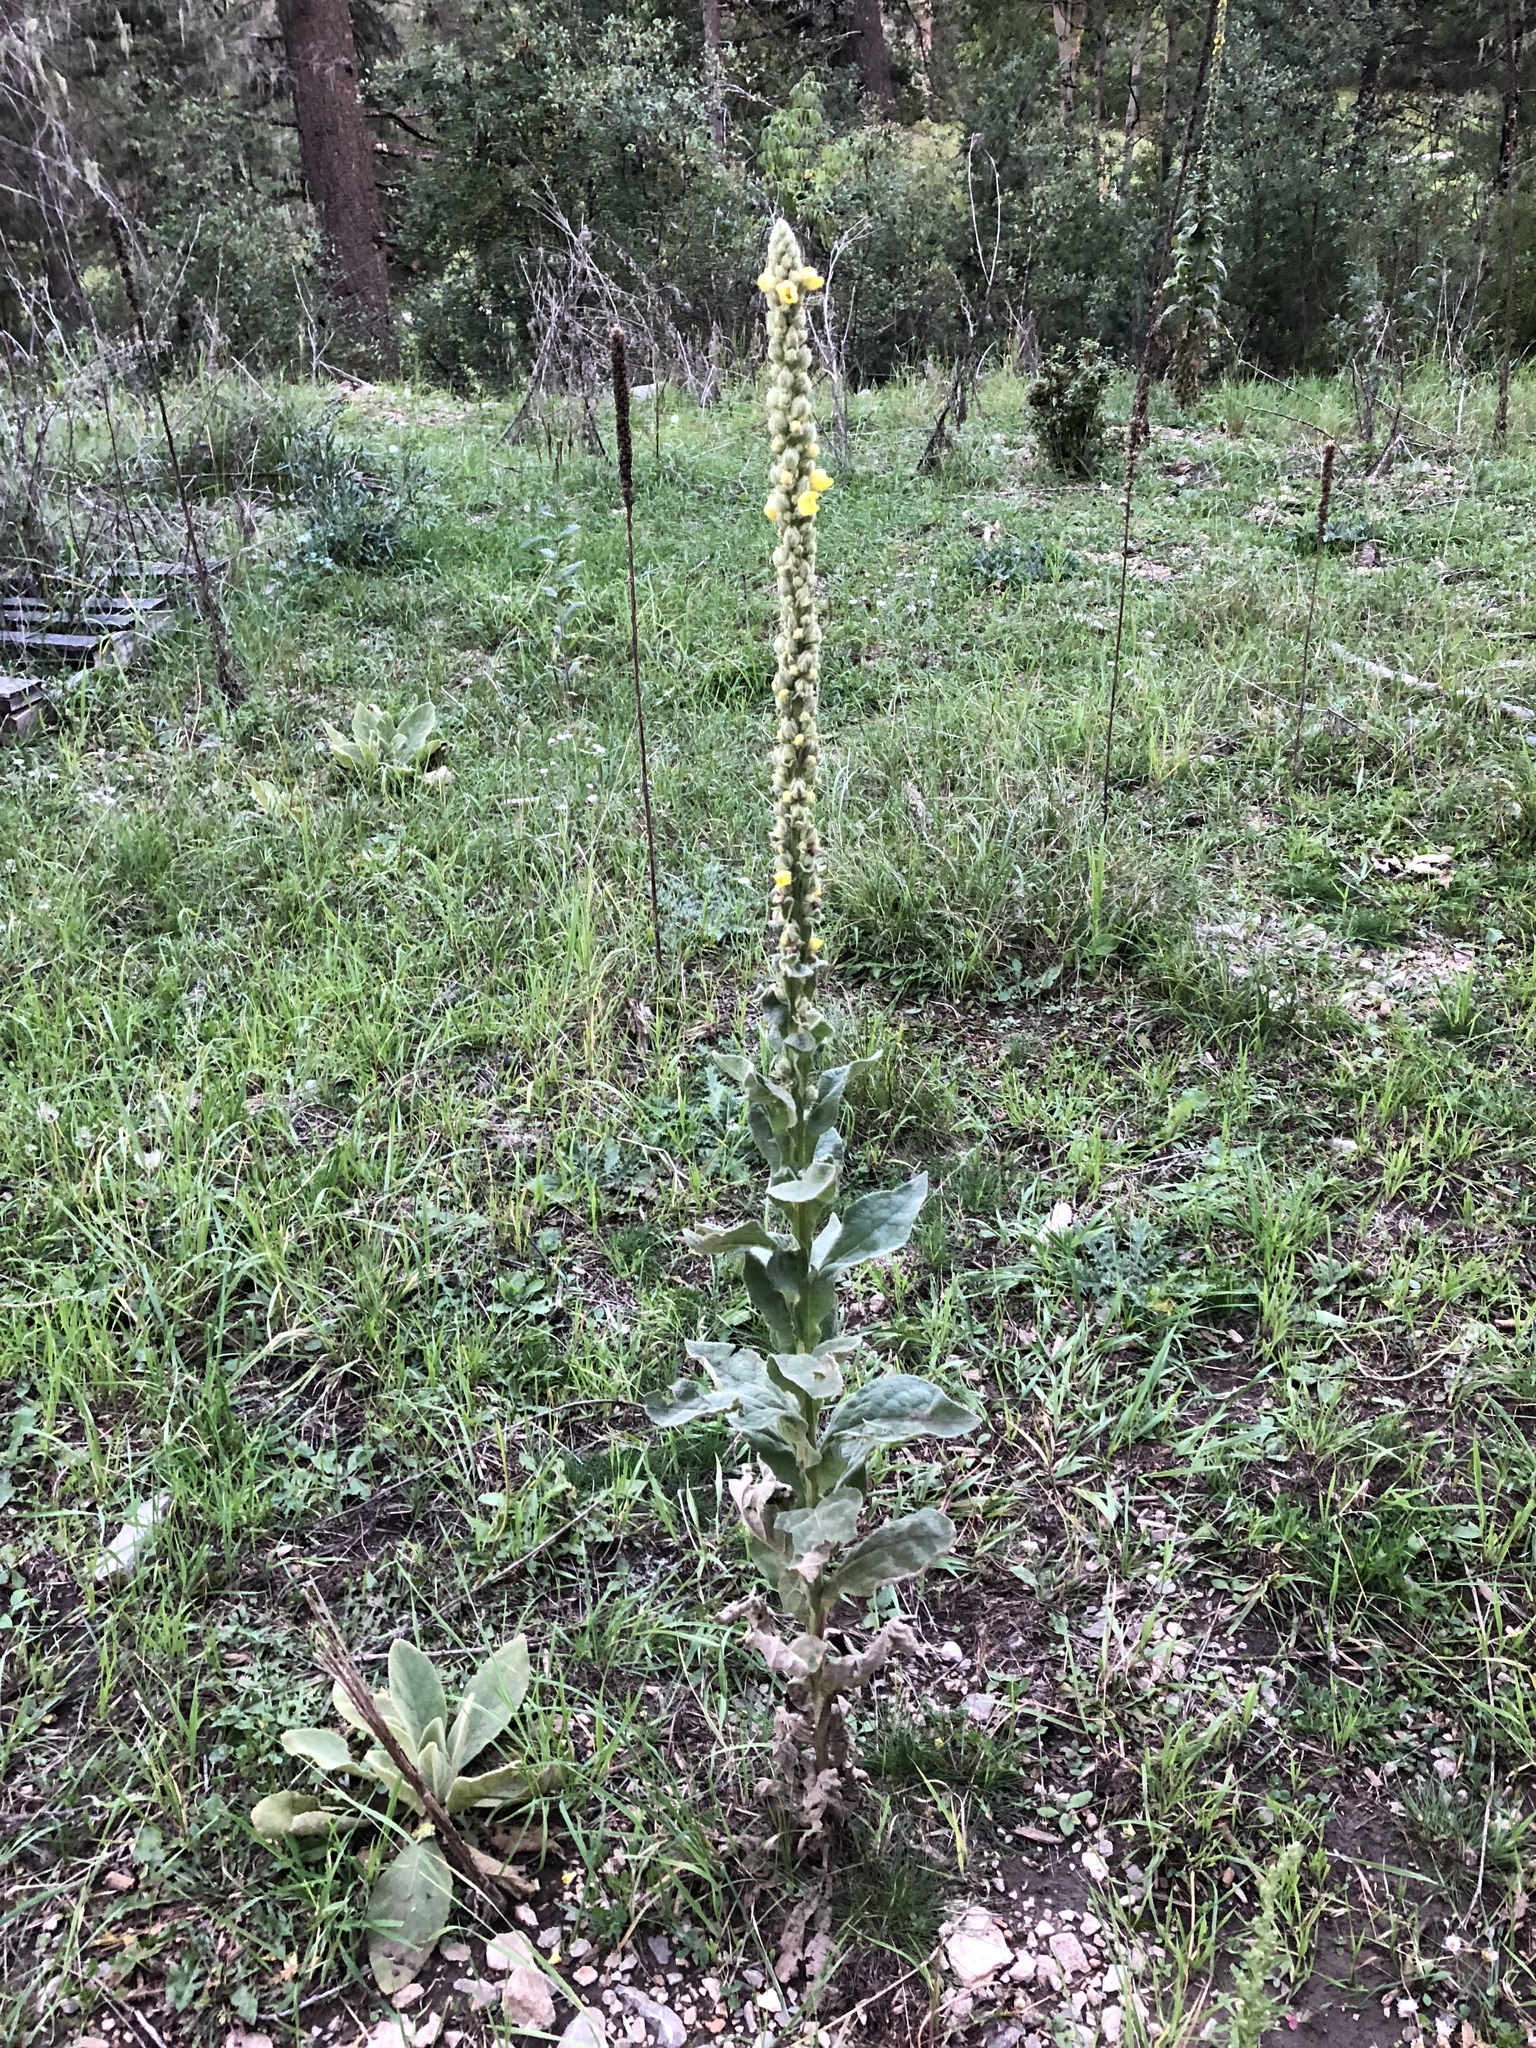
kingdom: Plantae
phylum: Tracheophyta
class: Magnoliopsida
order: Lamiales
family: Scrophulariaceae
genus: Verbascum
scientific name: Verbascum thapsus
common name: Common mullein
